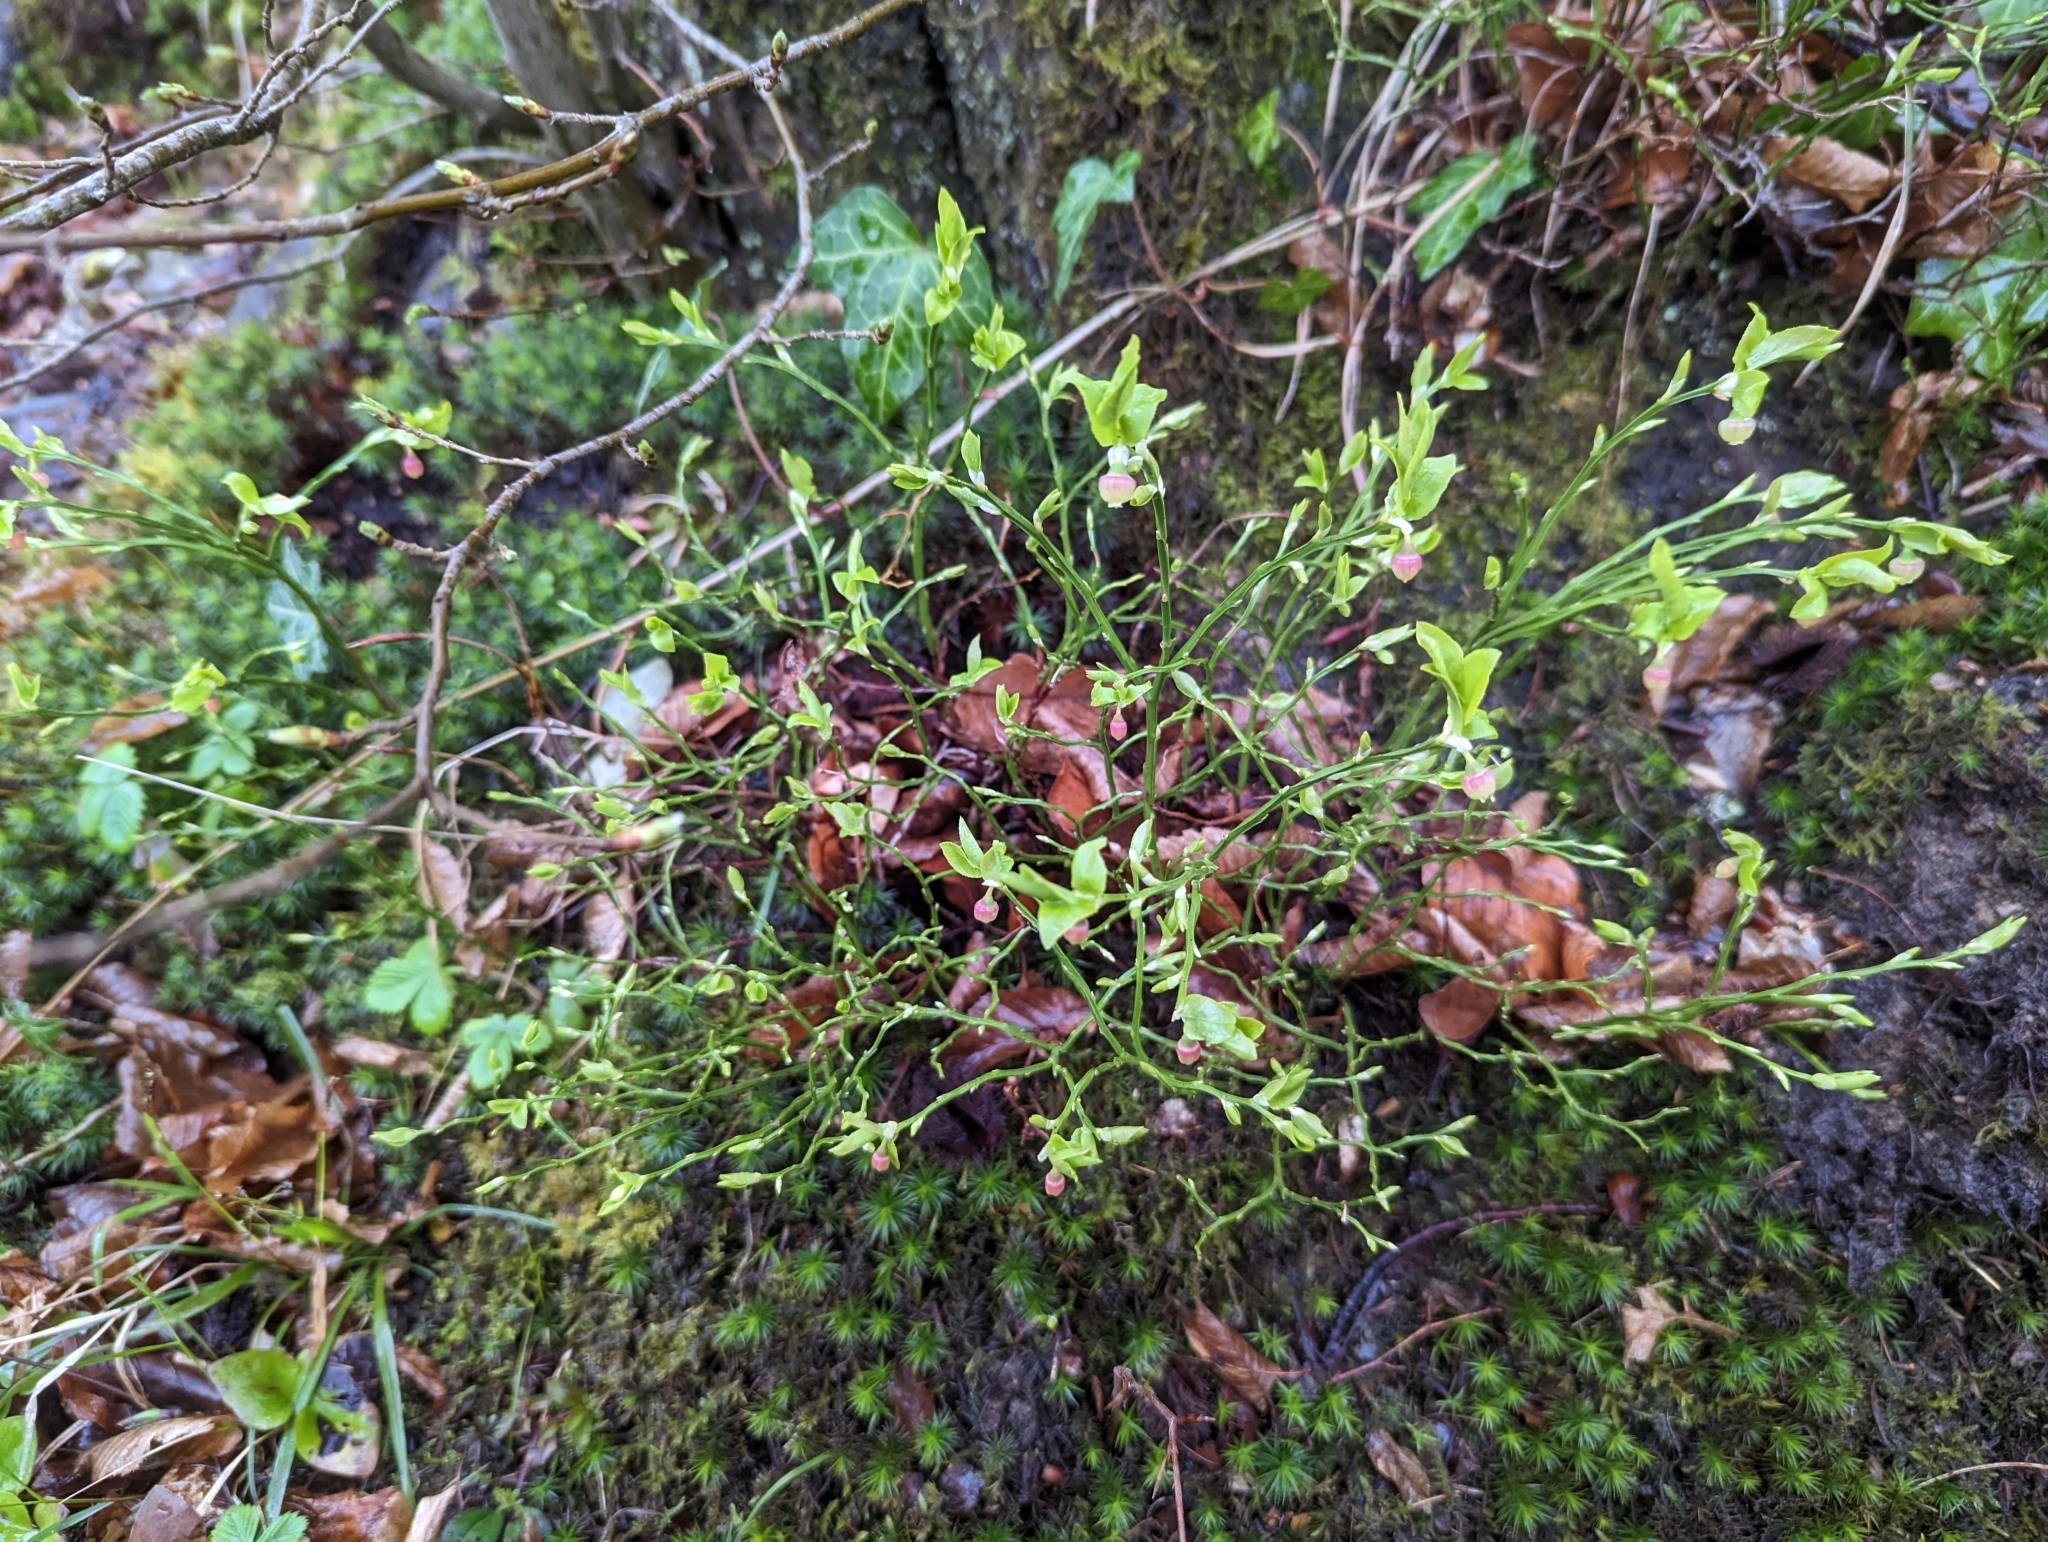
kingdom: Plantae
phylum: Tracheophyta
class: Magnoliopsida
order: Ericales
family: Ericaceae
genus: Vaccinium
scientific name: Vaccinium myrtillus
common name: Bilberry
